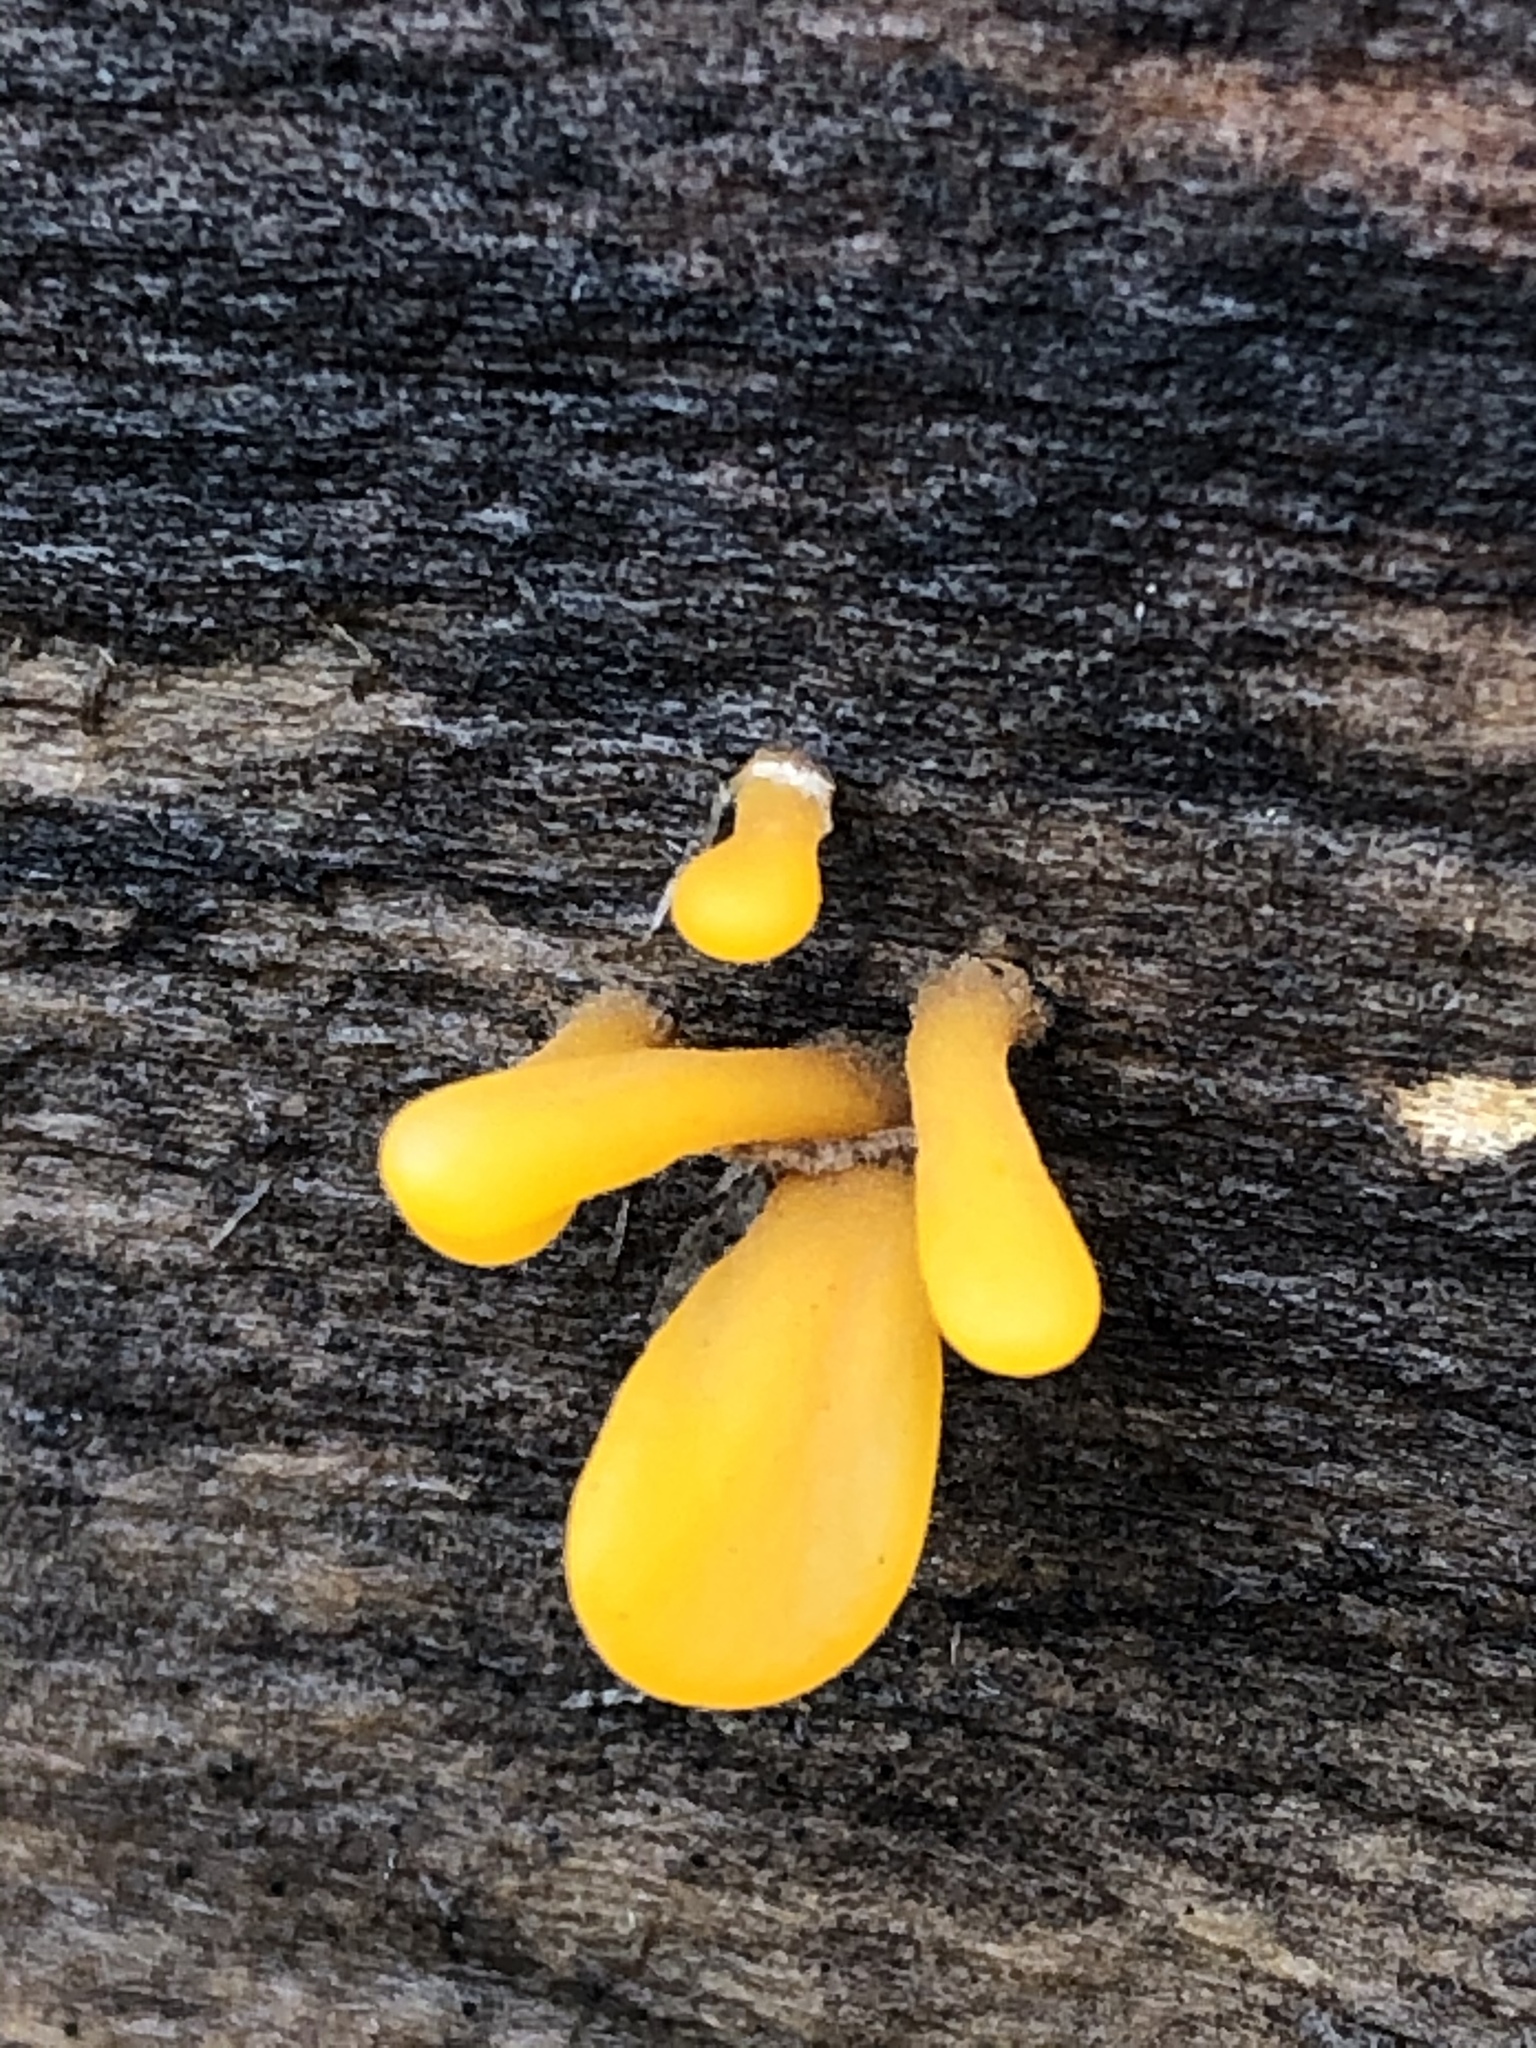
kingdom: Fungi
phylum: Basidiomycota
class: Dacrymycetes
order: Dacrymycetales
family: Dacrymycetaceae
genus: Dacrymyces
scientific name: Dacrymyces spathularius
